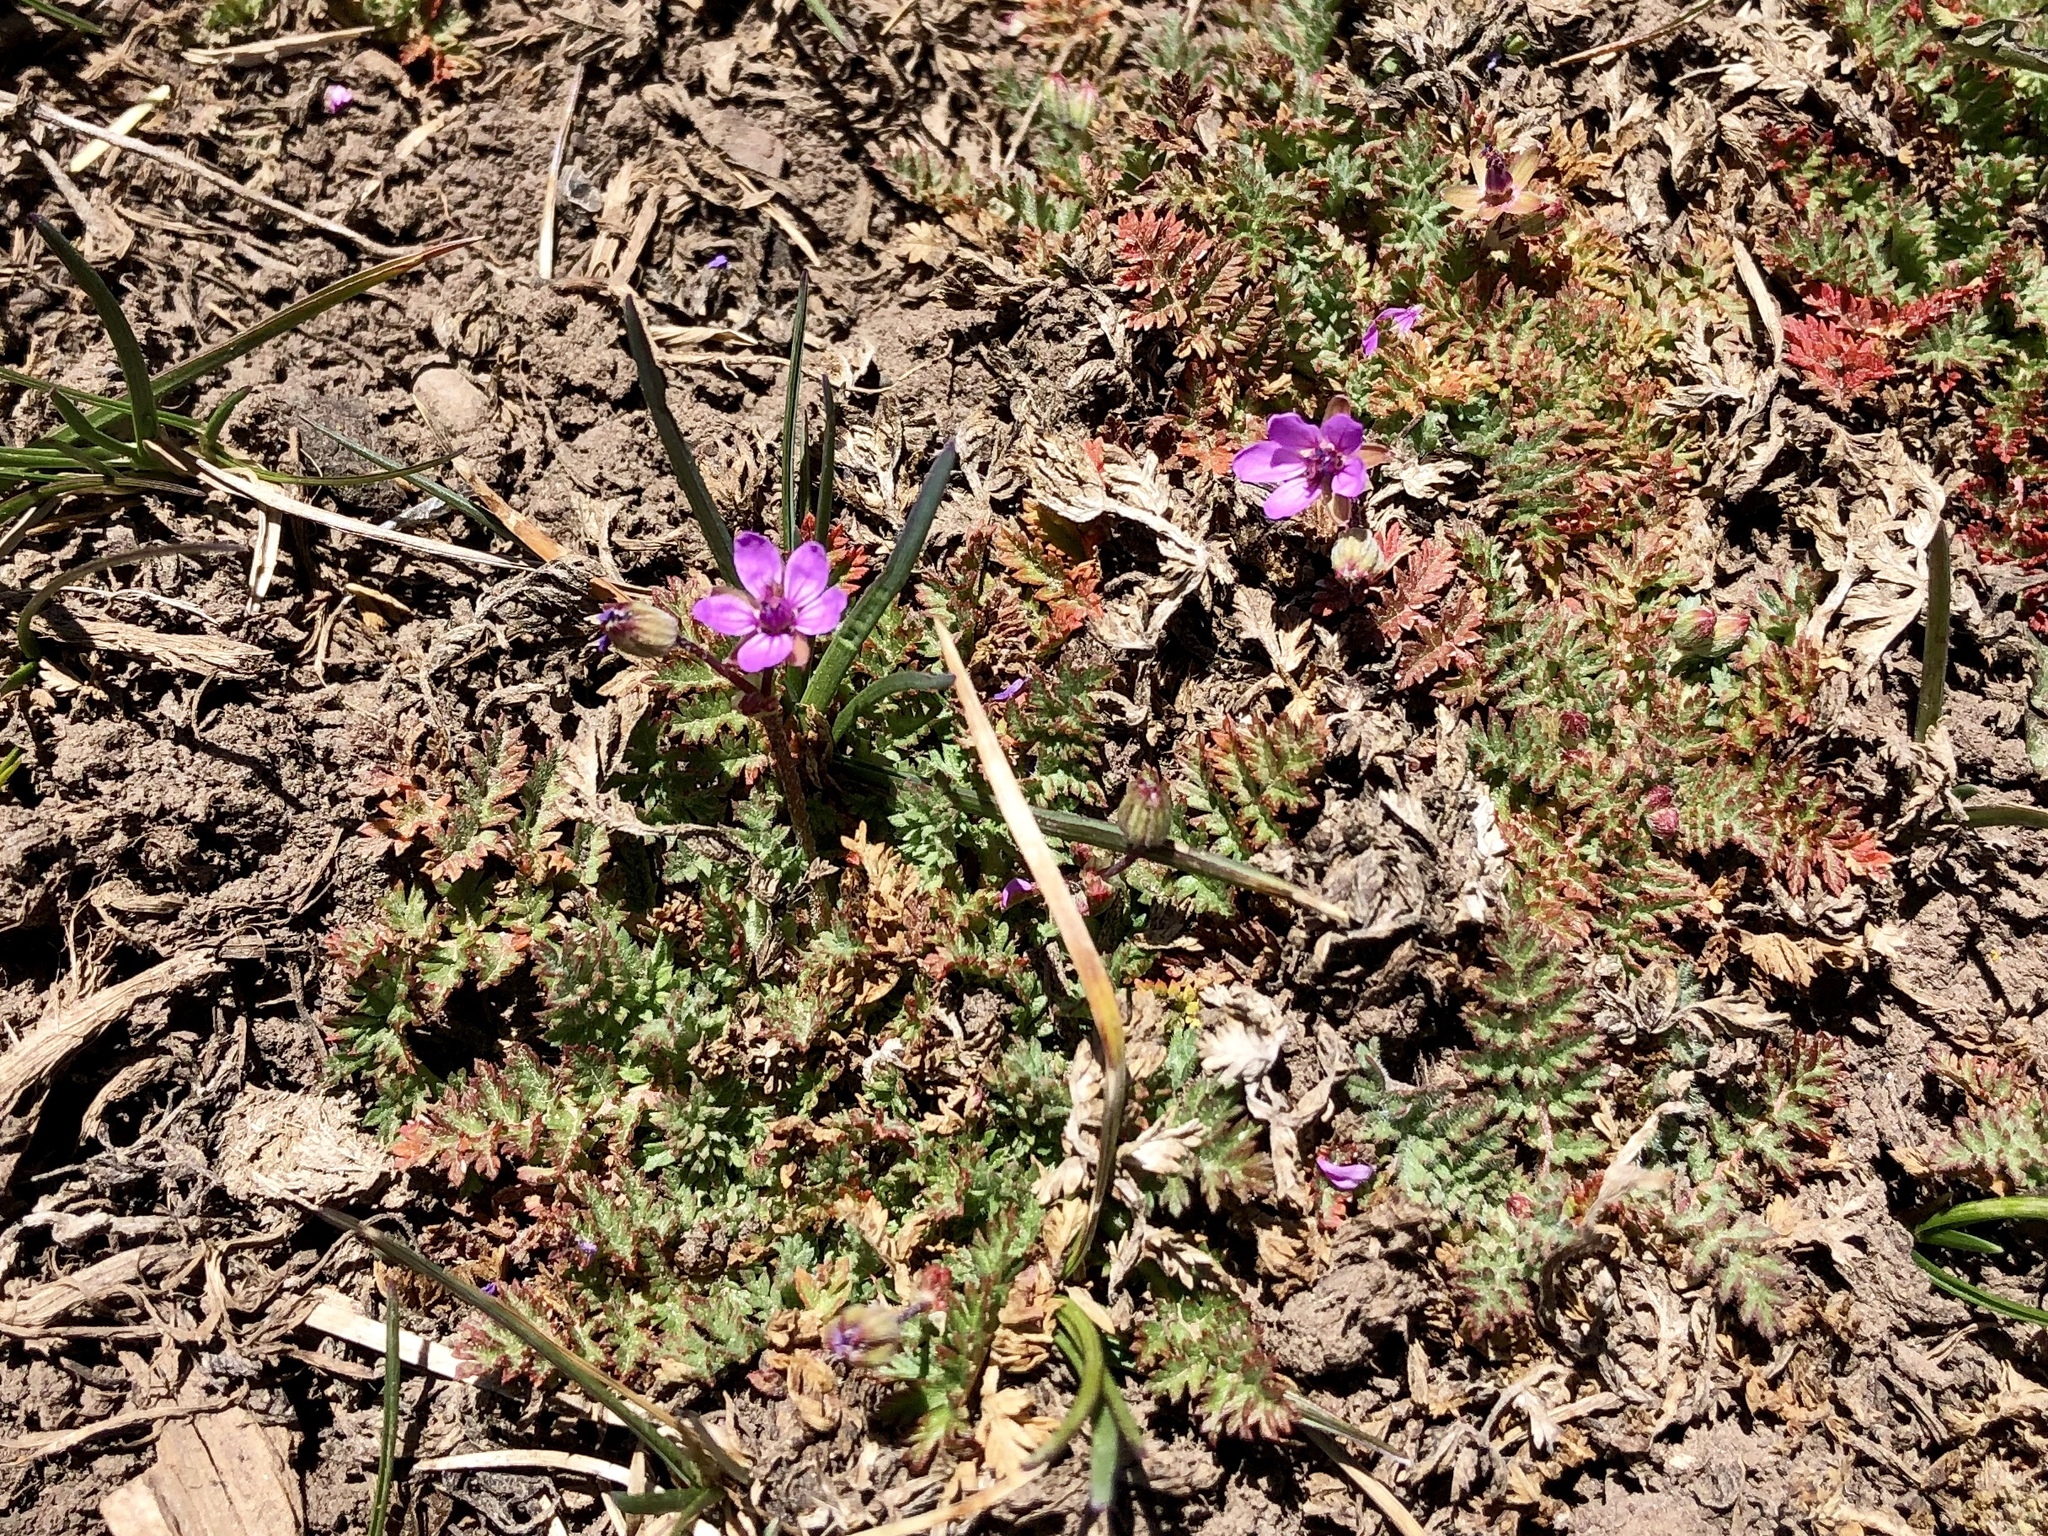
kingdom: Plantae
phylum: Tracheophyta
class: Magnoliopsida
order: Geraniales
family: Geraniaceae
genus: Erodium
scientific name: Erodium cicutarium
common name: Common stork's-bill
